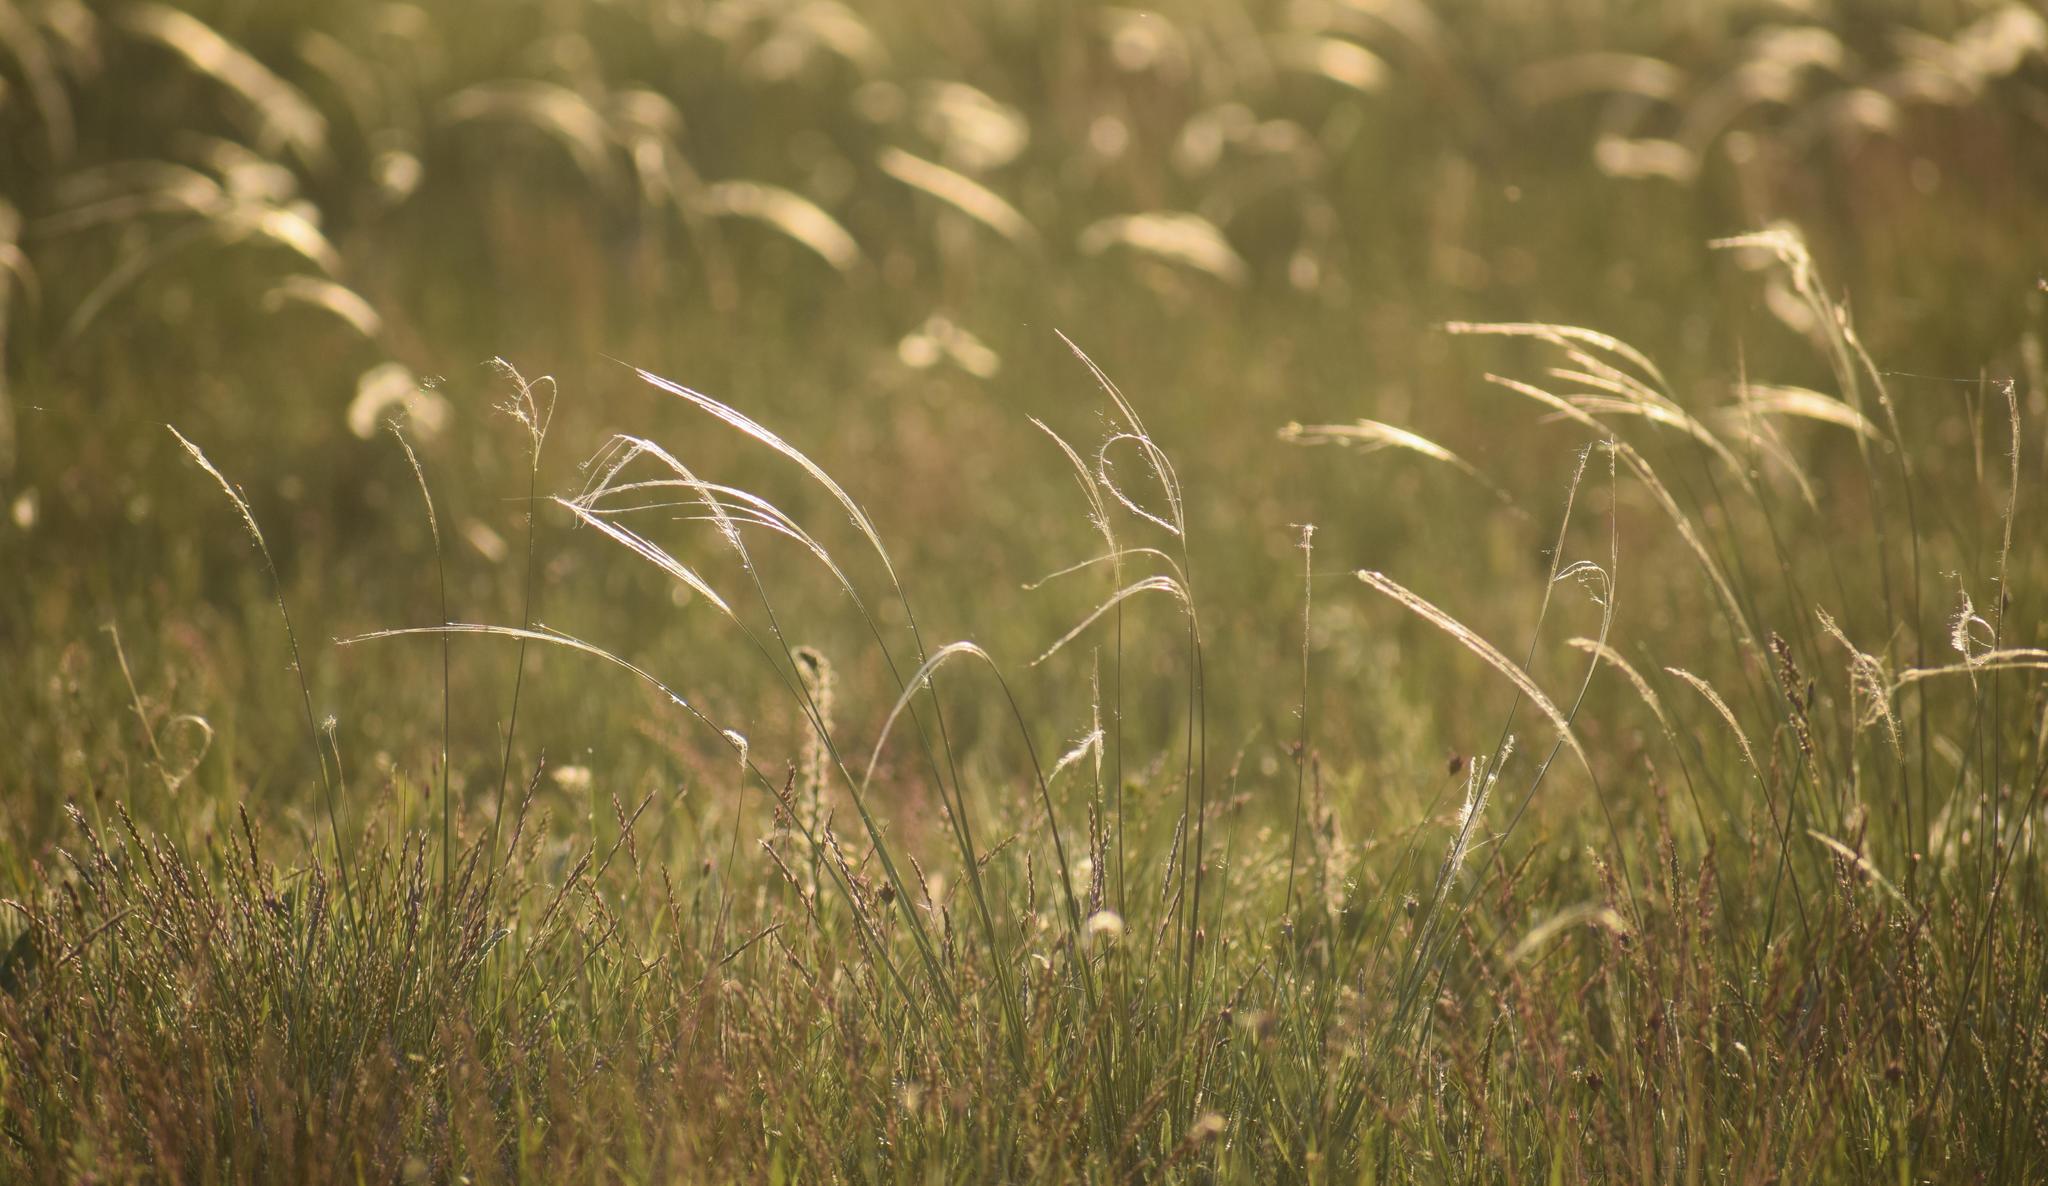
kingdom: Plantae
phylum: Tracheophyta
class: Liliopsida
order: Poales
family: Poaceae
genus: Stipa
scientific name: Stipa pennata
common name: European feather grass
